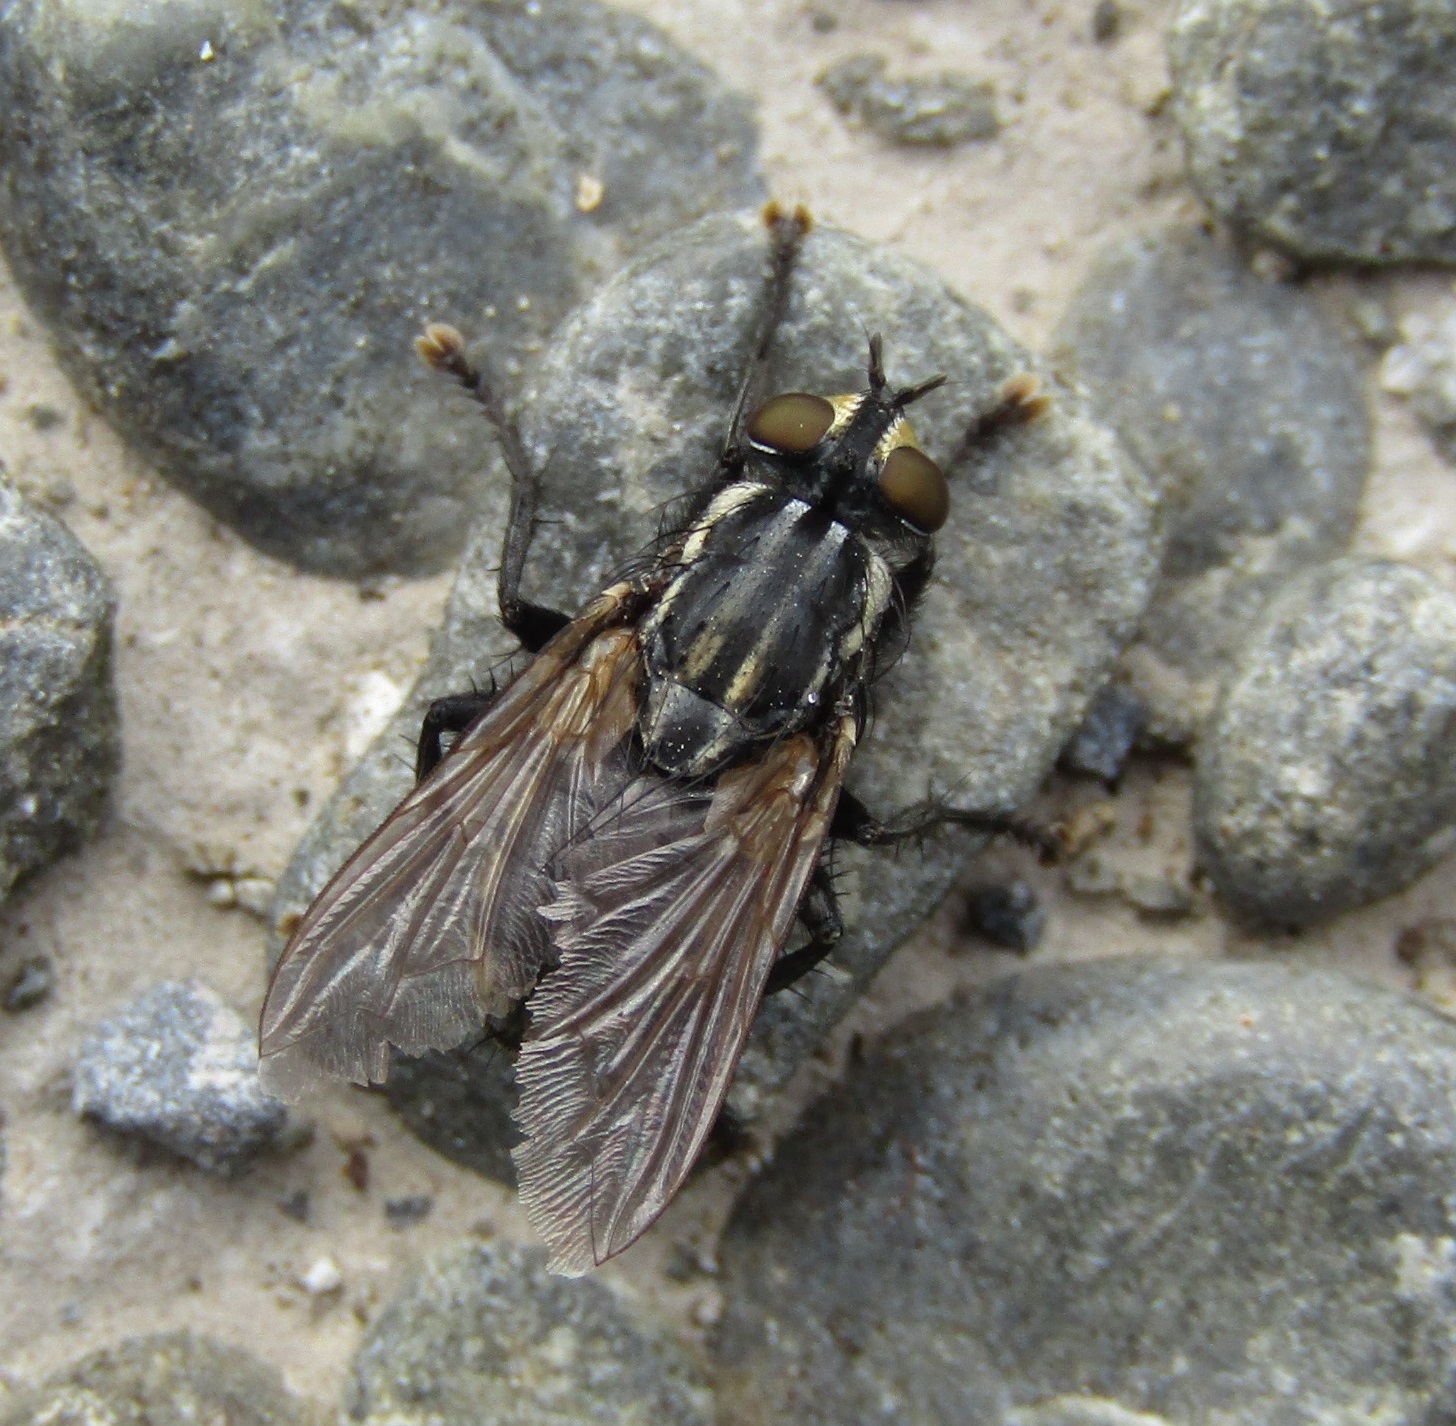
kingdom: Animalia
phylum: Arthropoda
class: Insecta
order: Diptera
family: Sarcophagidae
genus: Oxysarcodexia
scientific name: Oxysarcodexia varia
